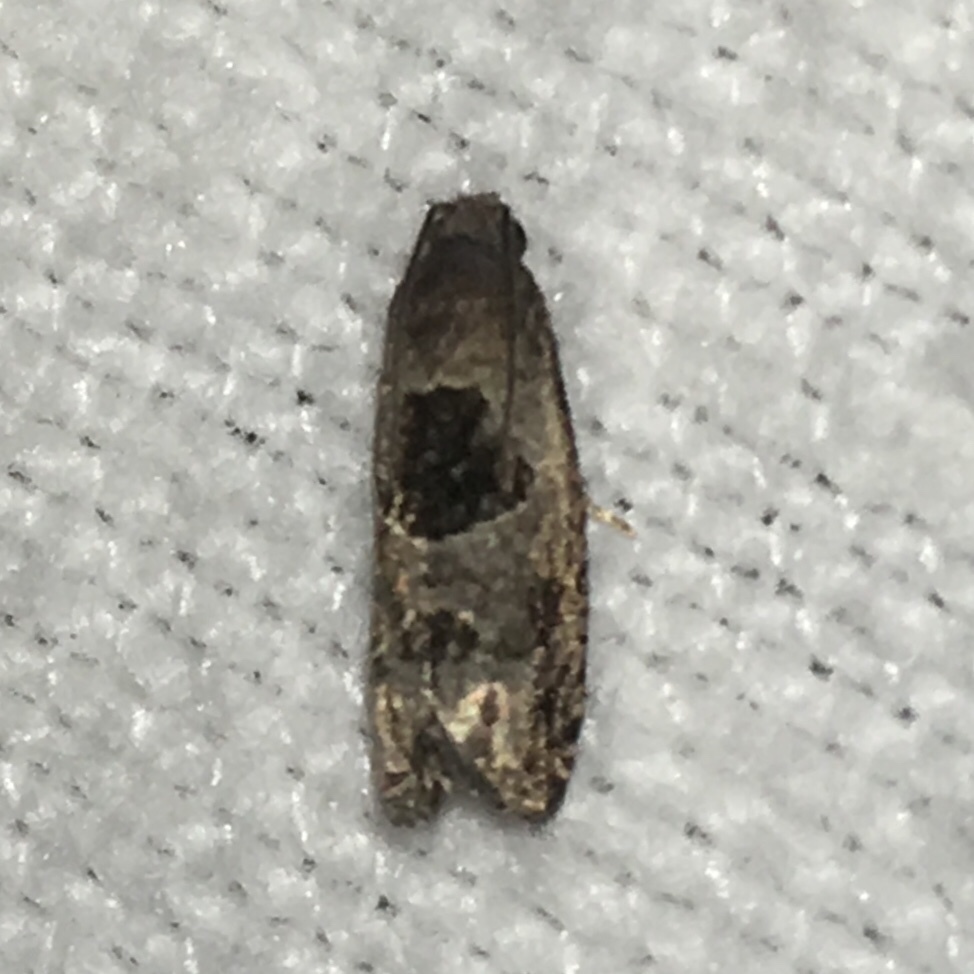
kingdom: Animalia
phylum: Arthropoda
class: Insecta
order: Lepidoptera
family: Tortricidae
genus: Epiblema
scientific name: Epiblema brightonana
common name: Brighton's epiblema moth
